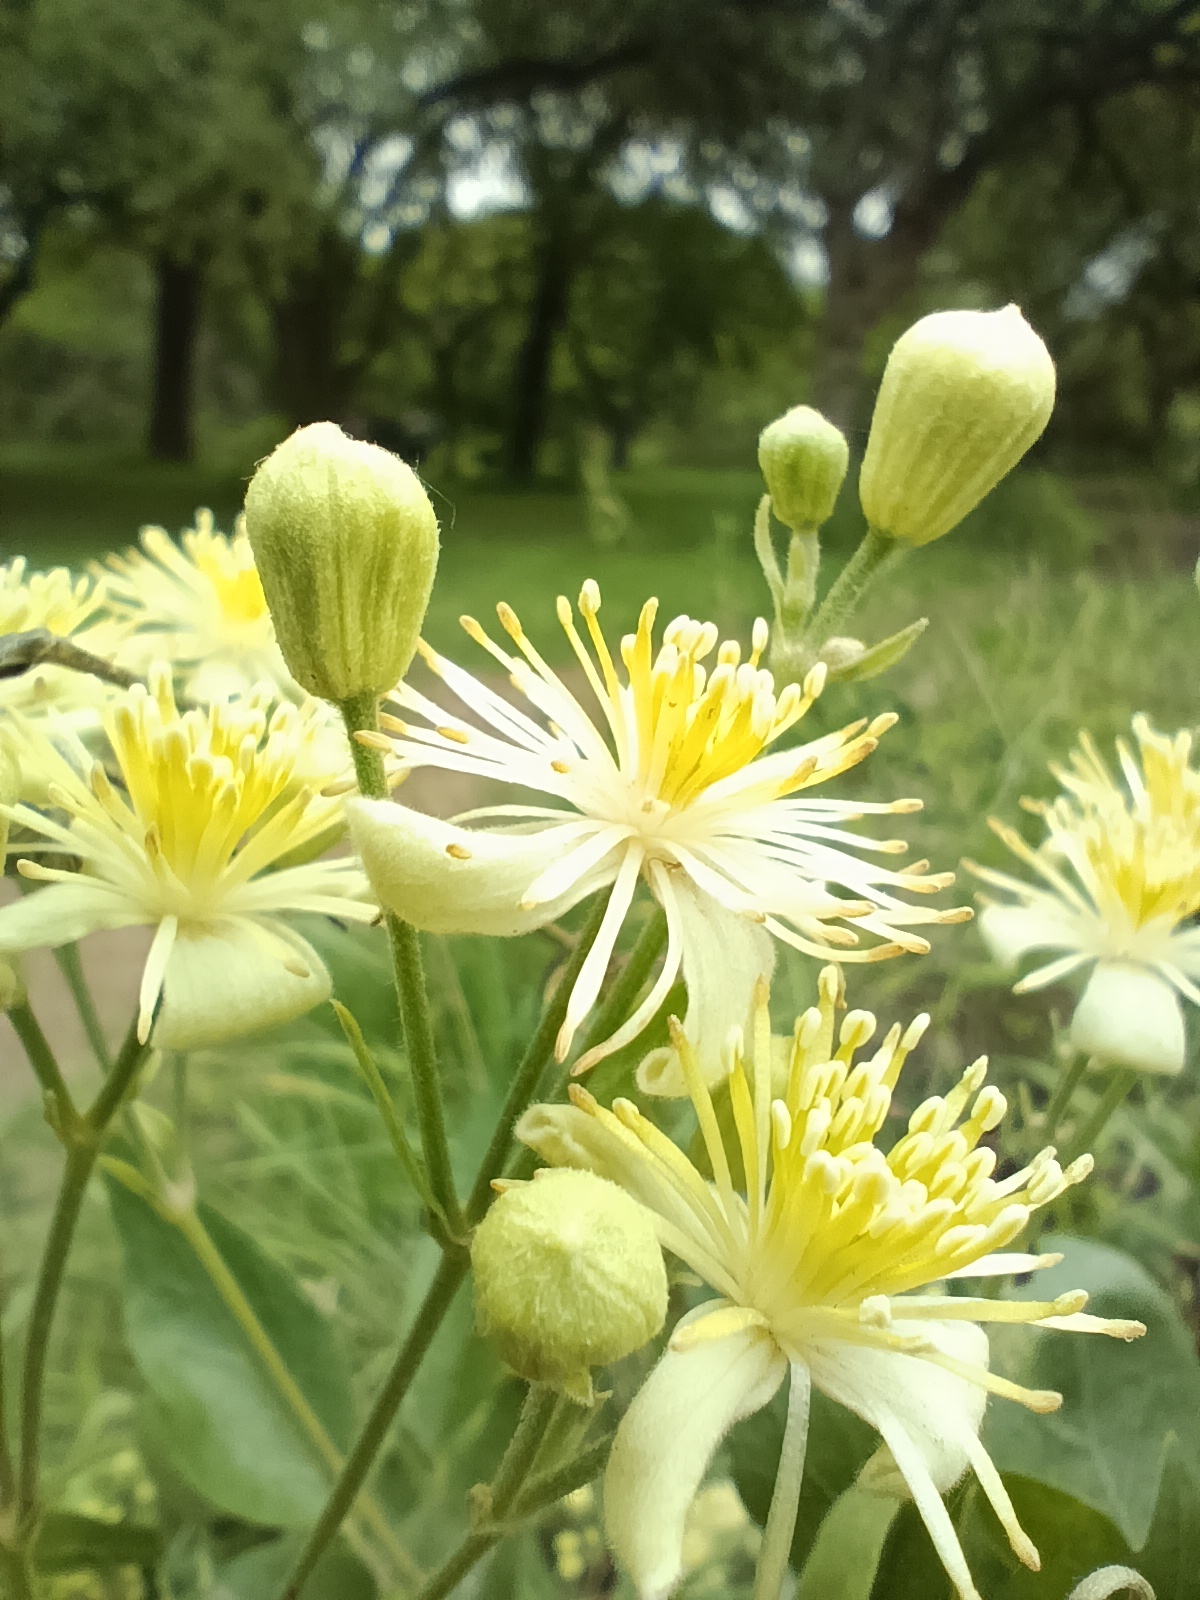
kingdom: Plantae
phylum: Tracheophyta
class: Magnoliopsida
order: Ranunculales
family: Ranunculaceae
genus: Clematis
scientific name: Clematis montevidensis
